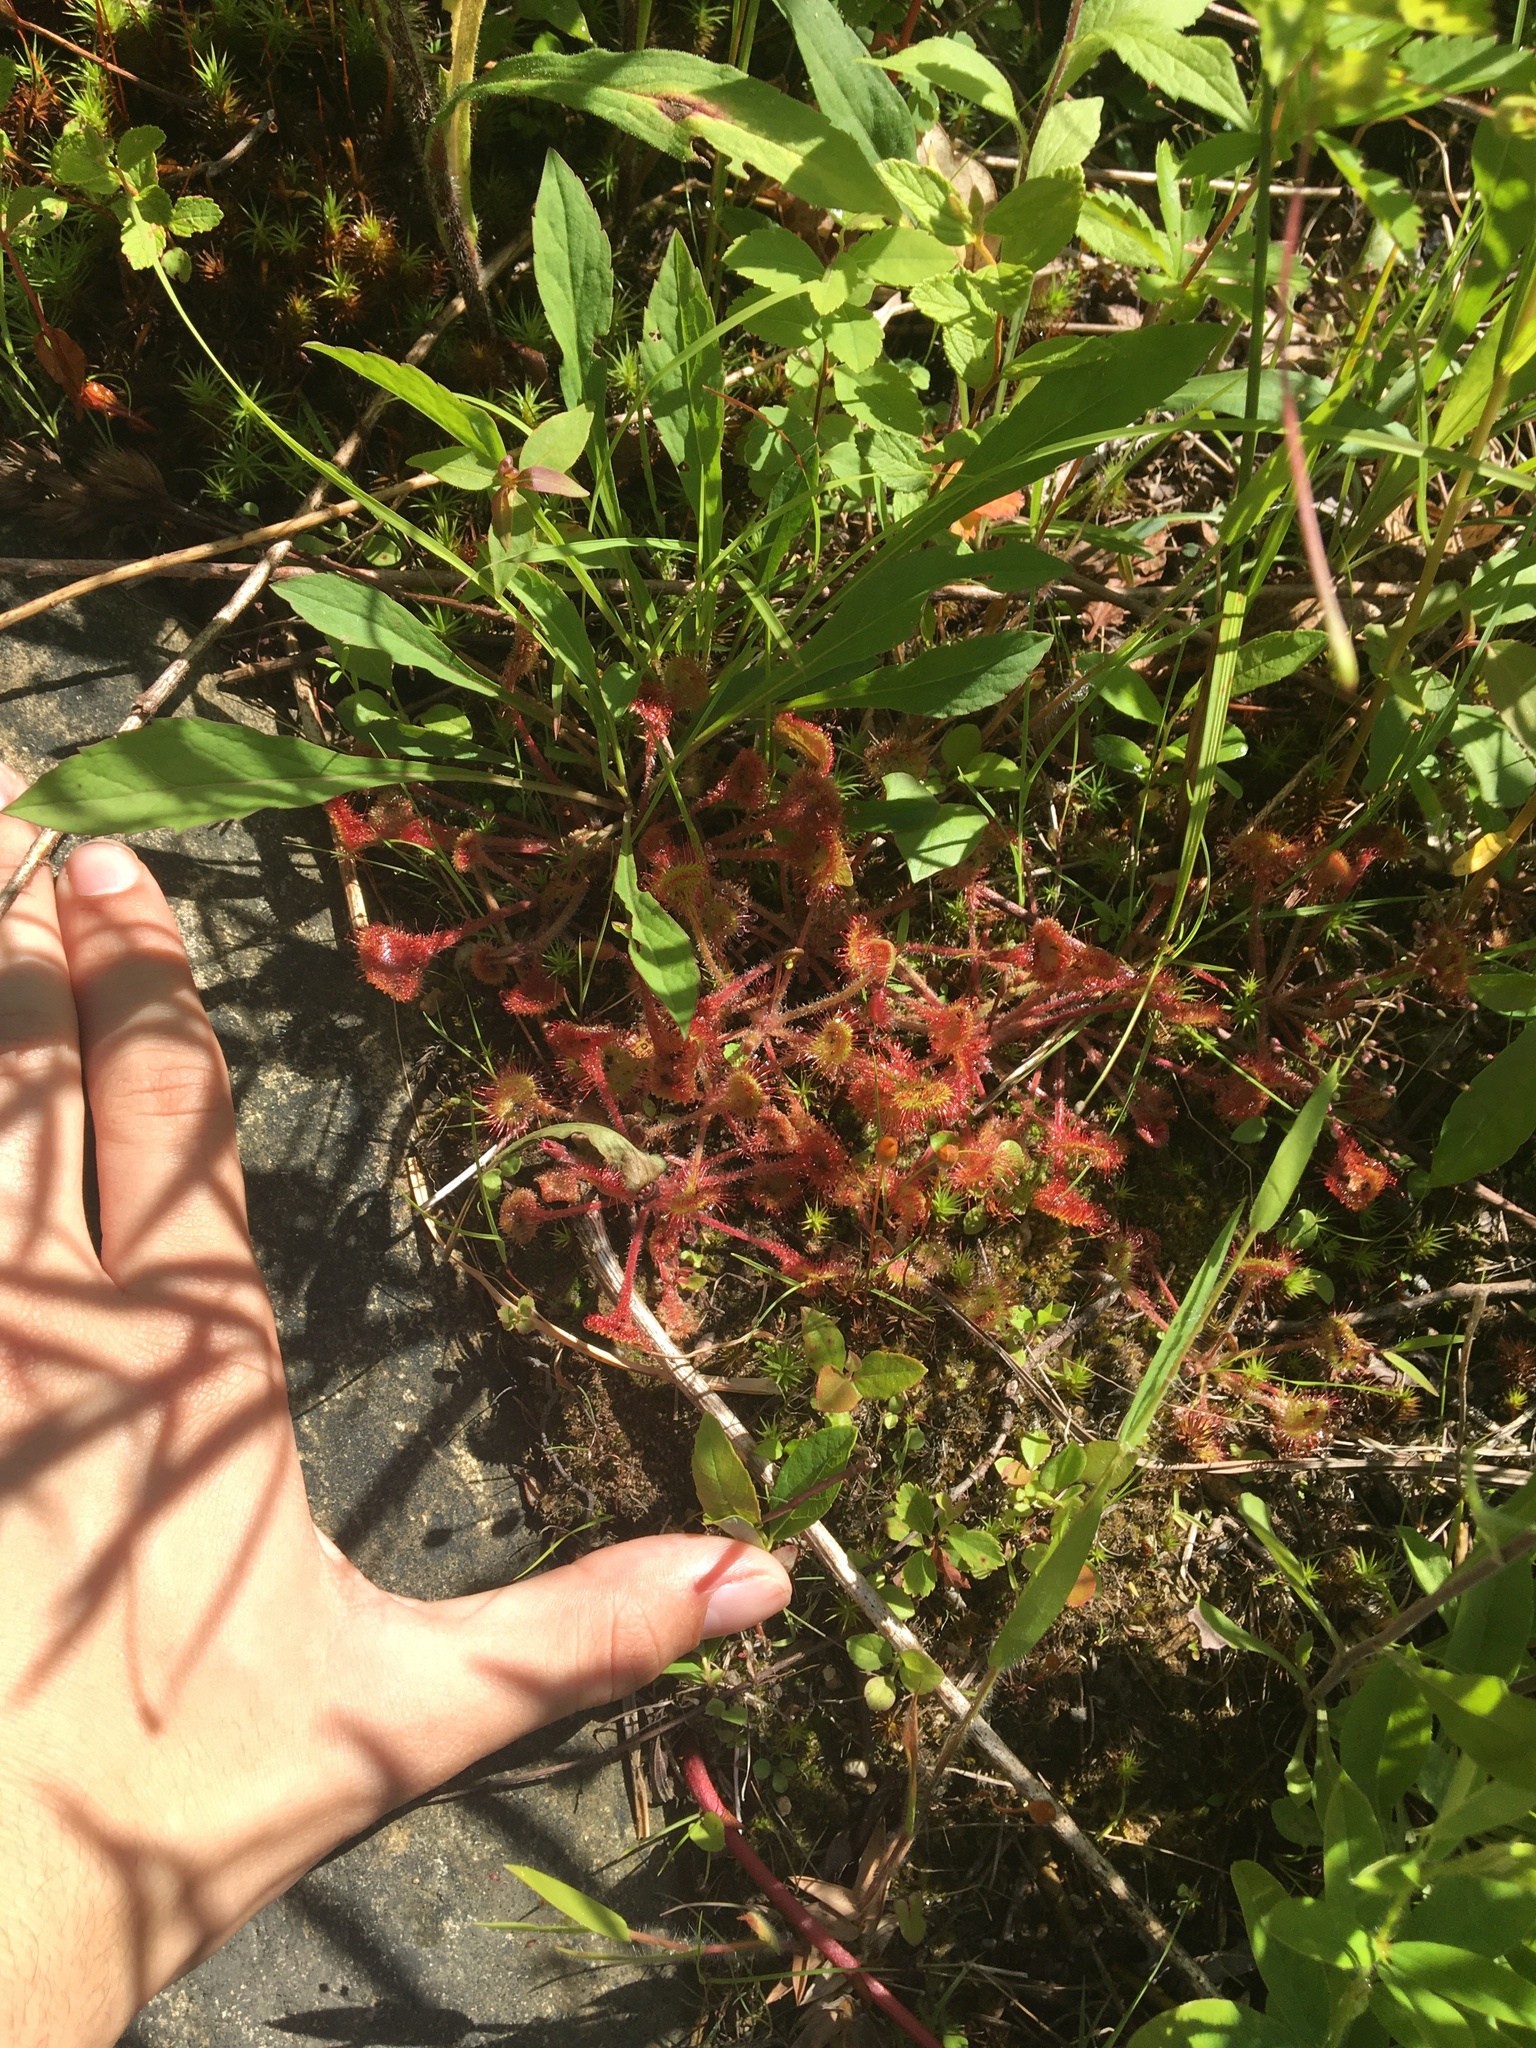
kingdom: Plantae
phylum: Tracheophyta
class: Magnoliopsida
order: Caryophyllales
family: Droseraceae
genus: Drosera
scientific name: Drosera rotundifolia
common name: Round-leaved sundew
